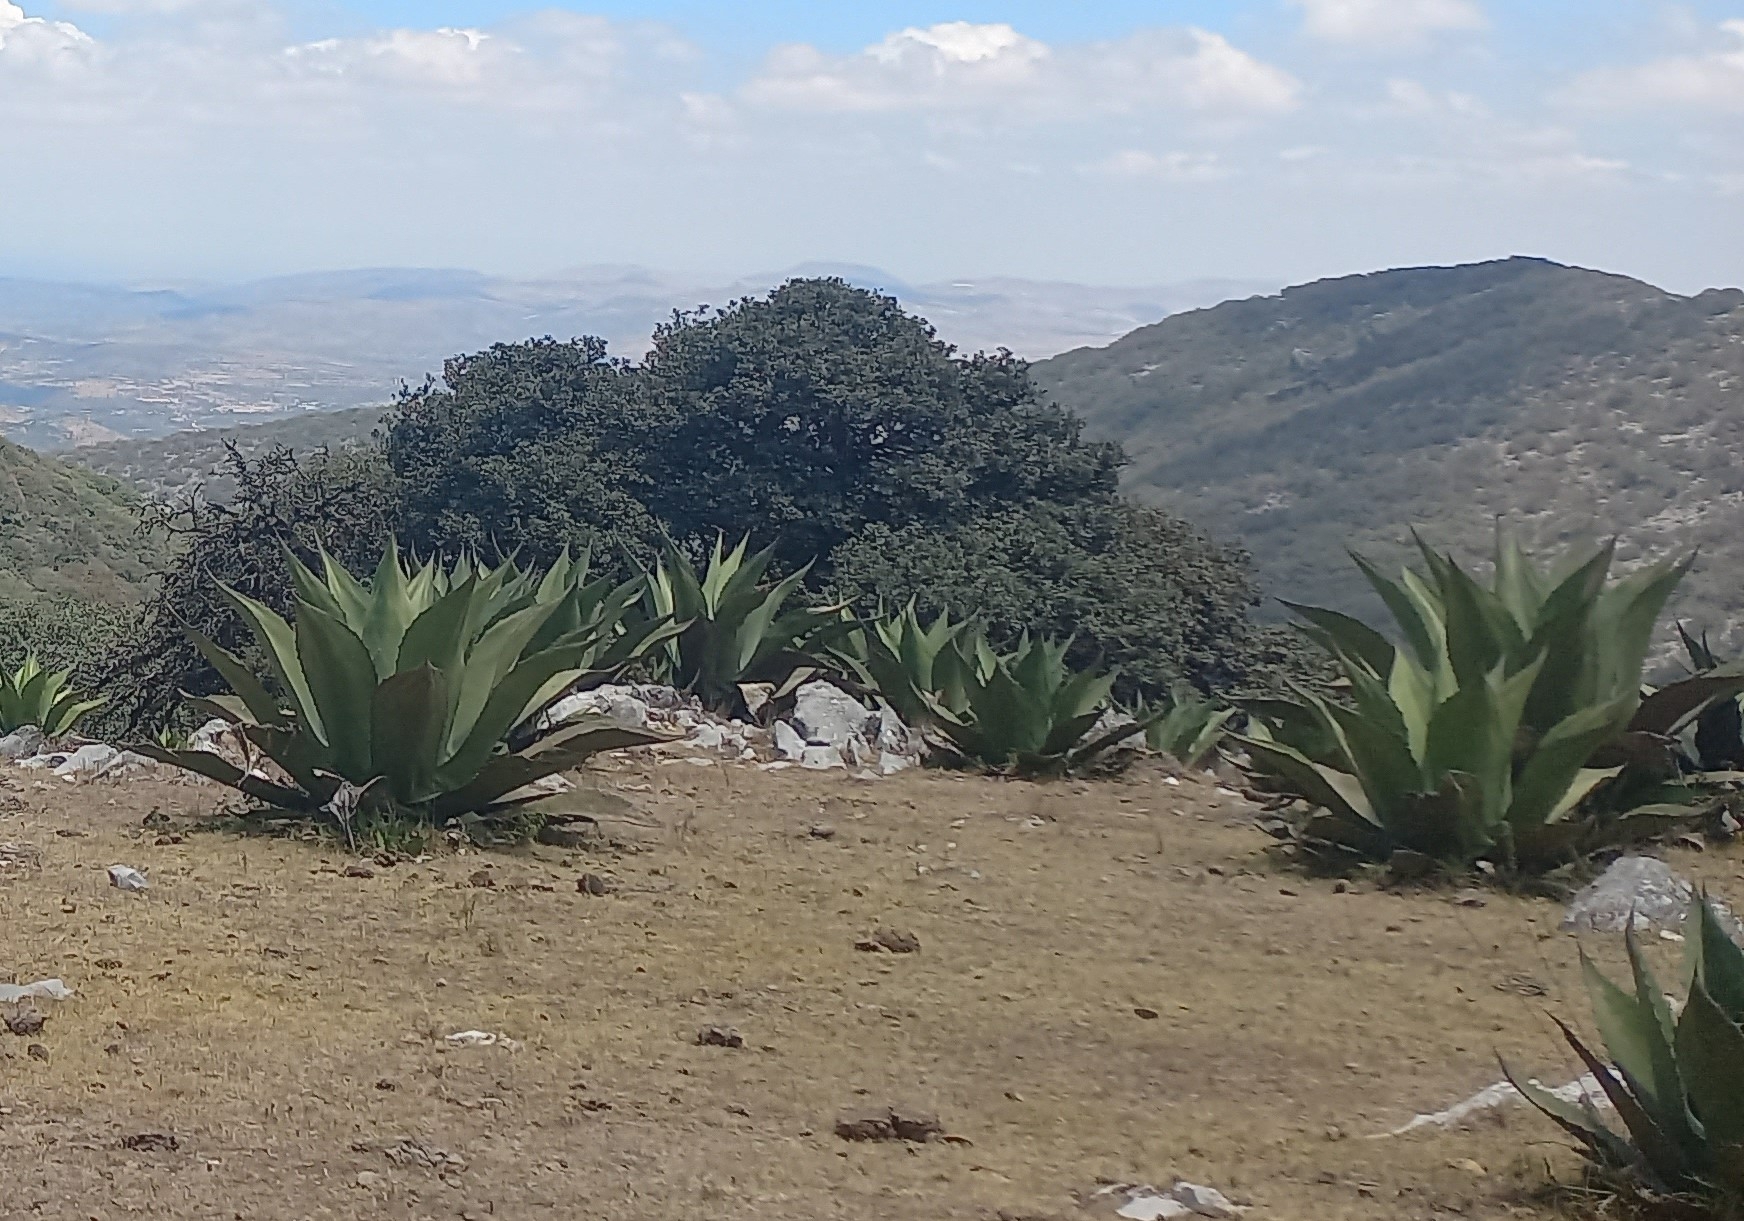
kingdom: Plantae
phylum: Tracheophyta
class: Liliopsida
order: Asparagales
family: Asparagaceae
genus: Agave
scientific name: Agave salmiana
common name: Pulque agave
